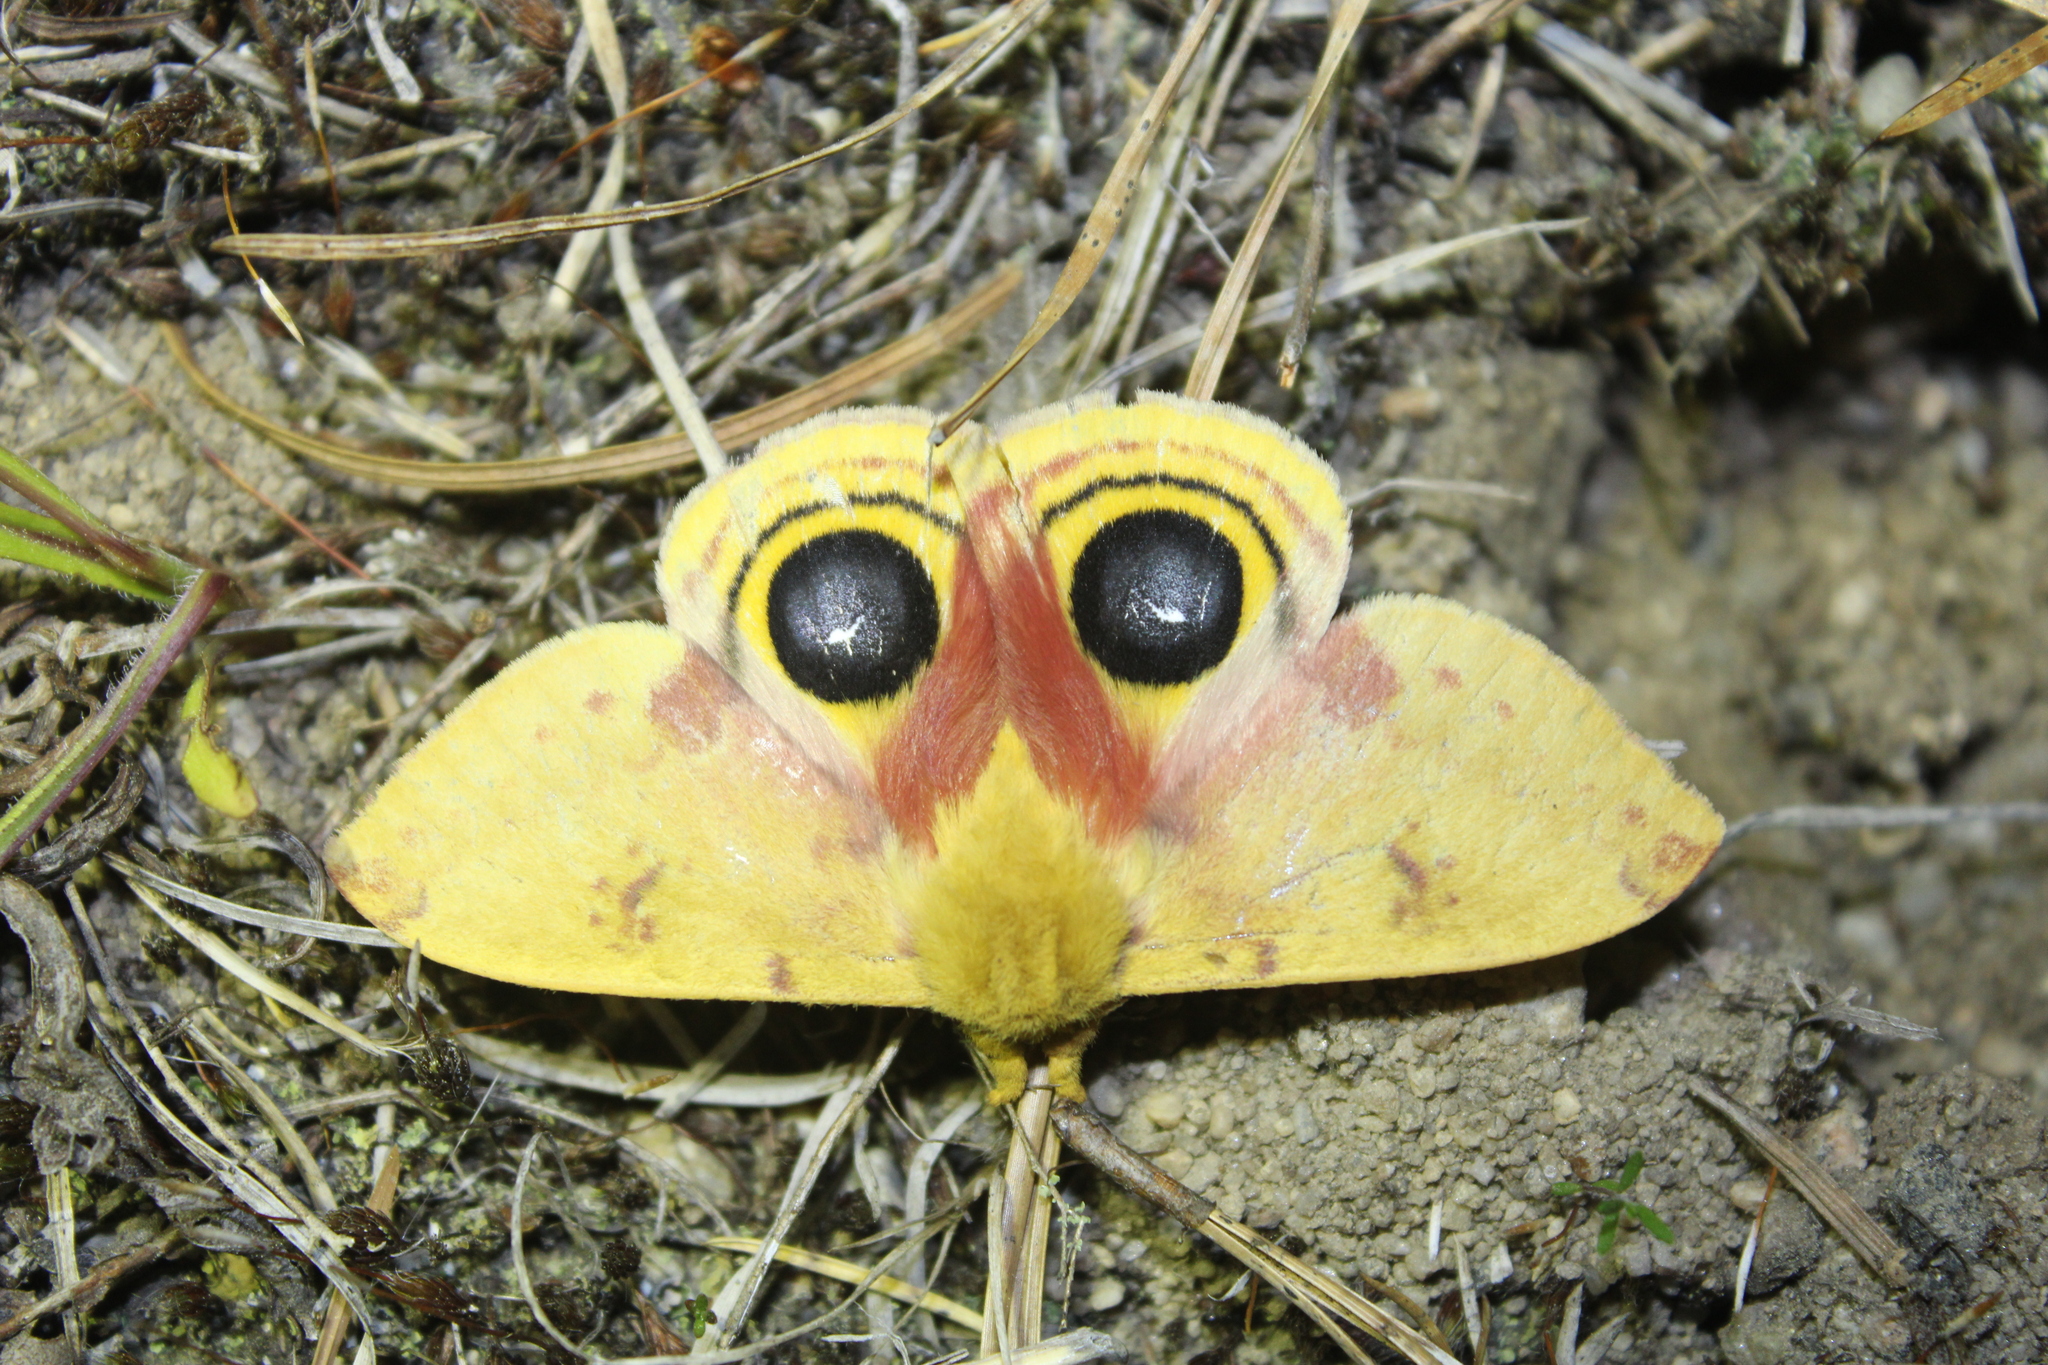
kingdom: Animalia
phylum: Arthropoda
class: Insecta
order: Lepidoptera
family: Saturniidae
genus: Automeris
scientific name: Automeris io
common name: Io moth
